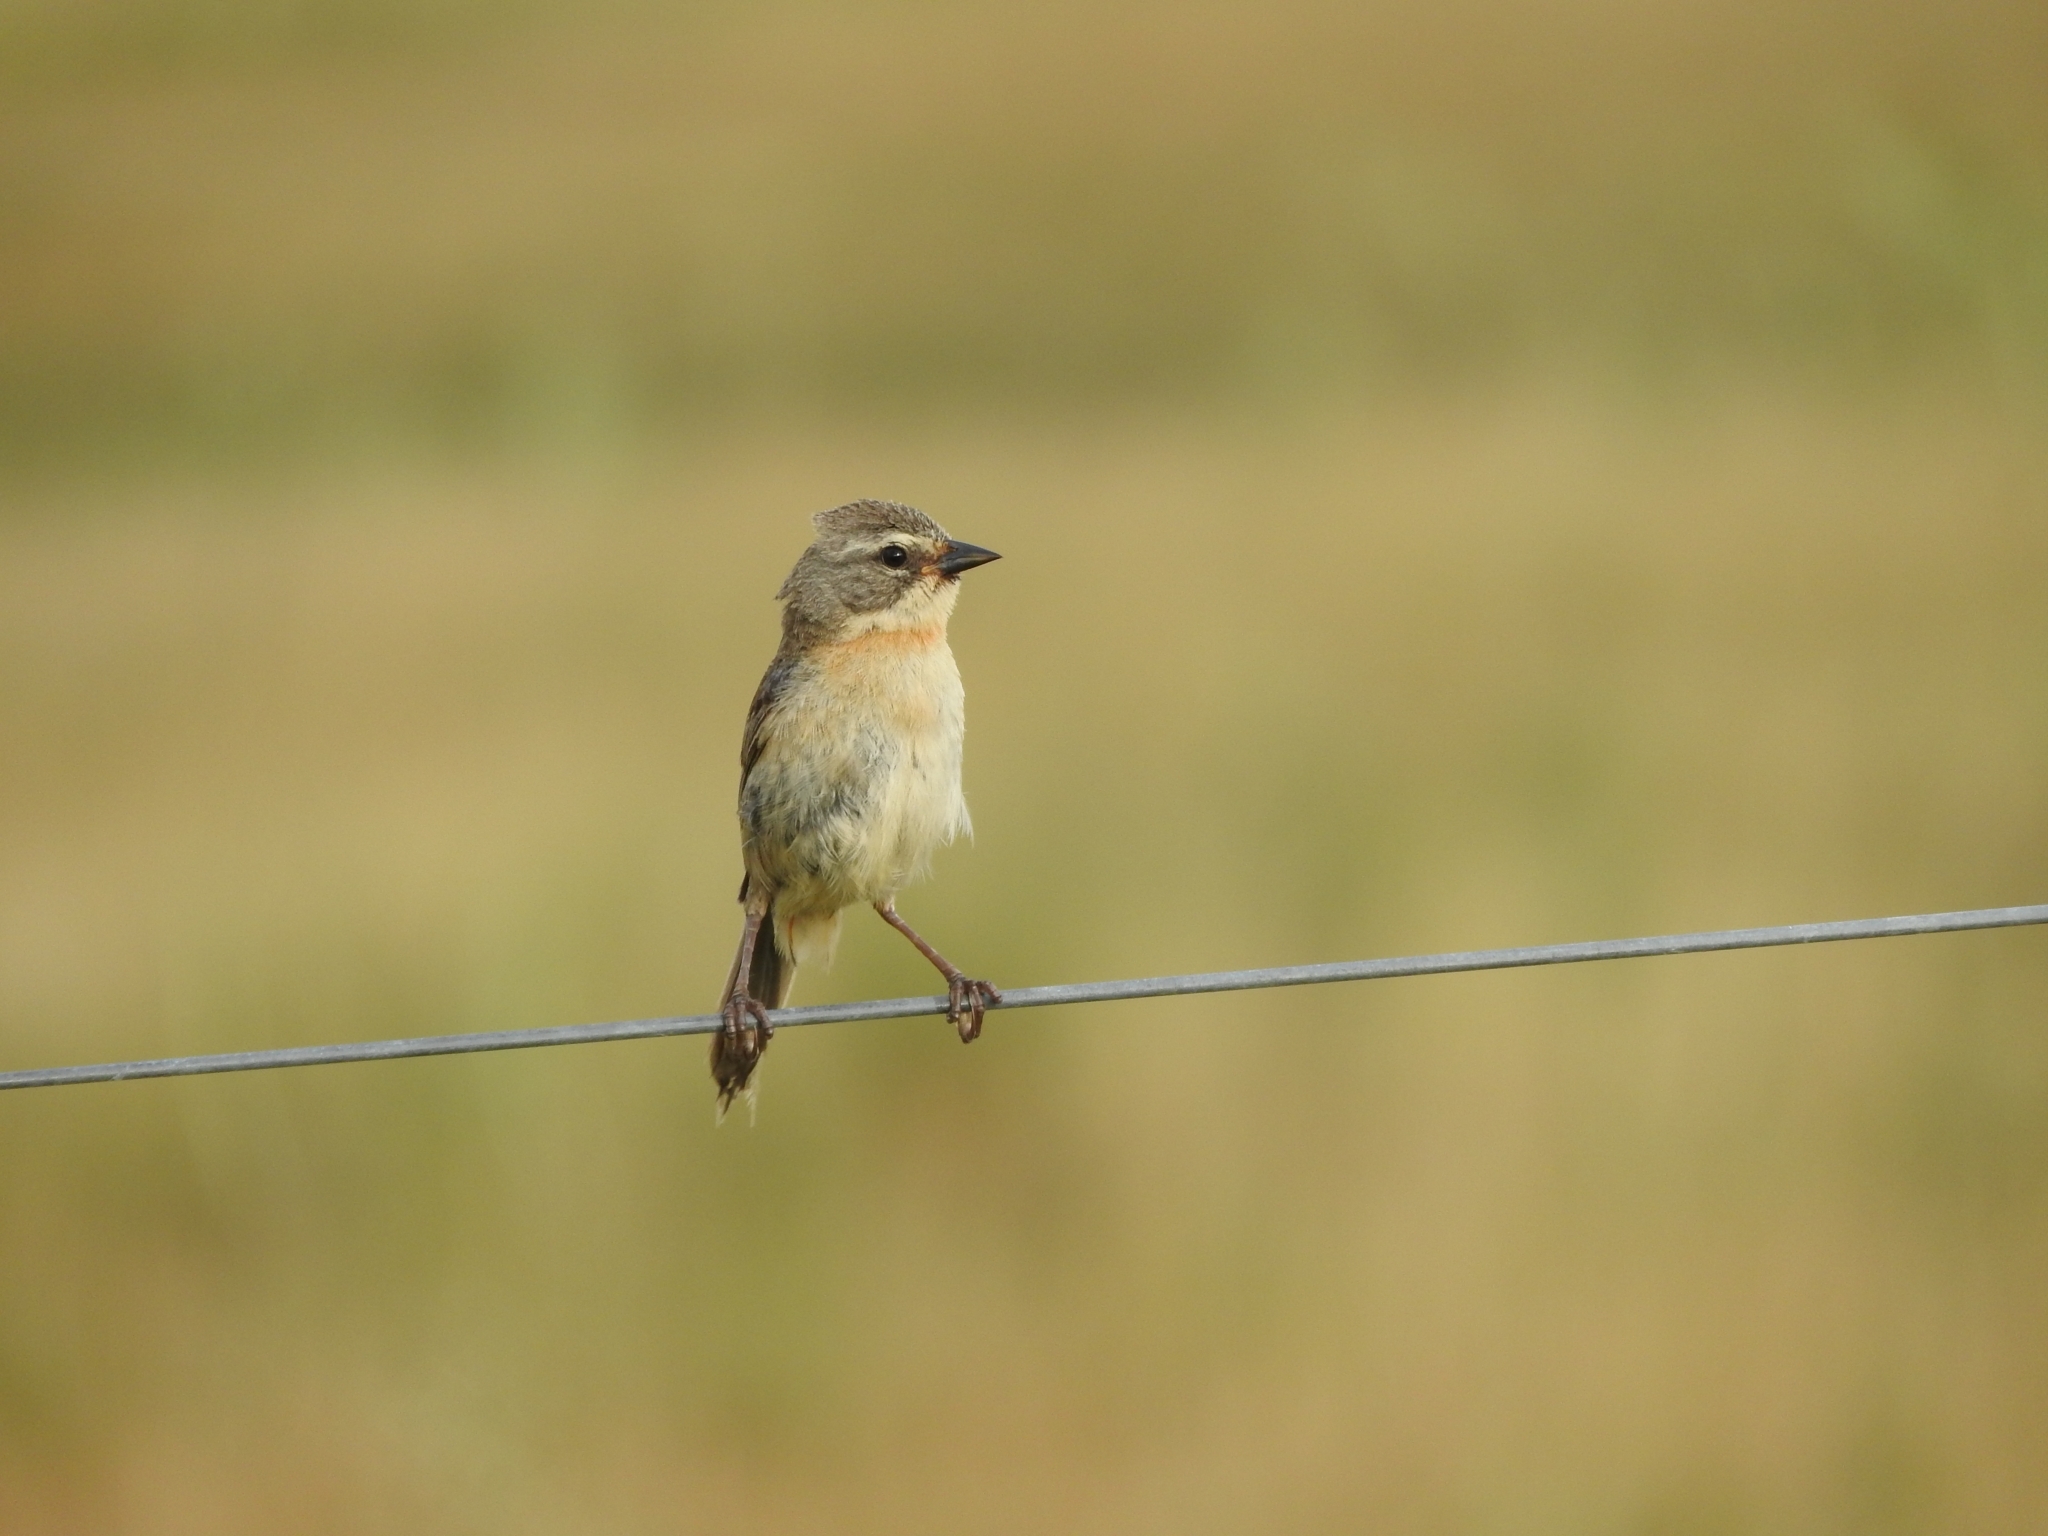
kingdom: Animalia
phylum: Chordata
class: Aves
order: Passeriformes
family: Thraupidae
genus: Donacospiza
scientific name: Donacospiza albifrons
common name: Long-tailed reed finch
